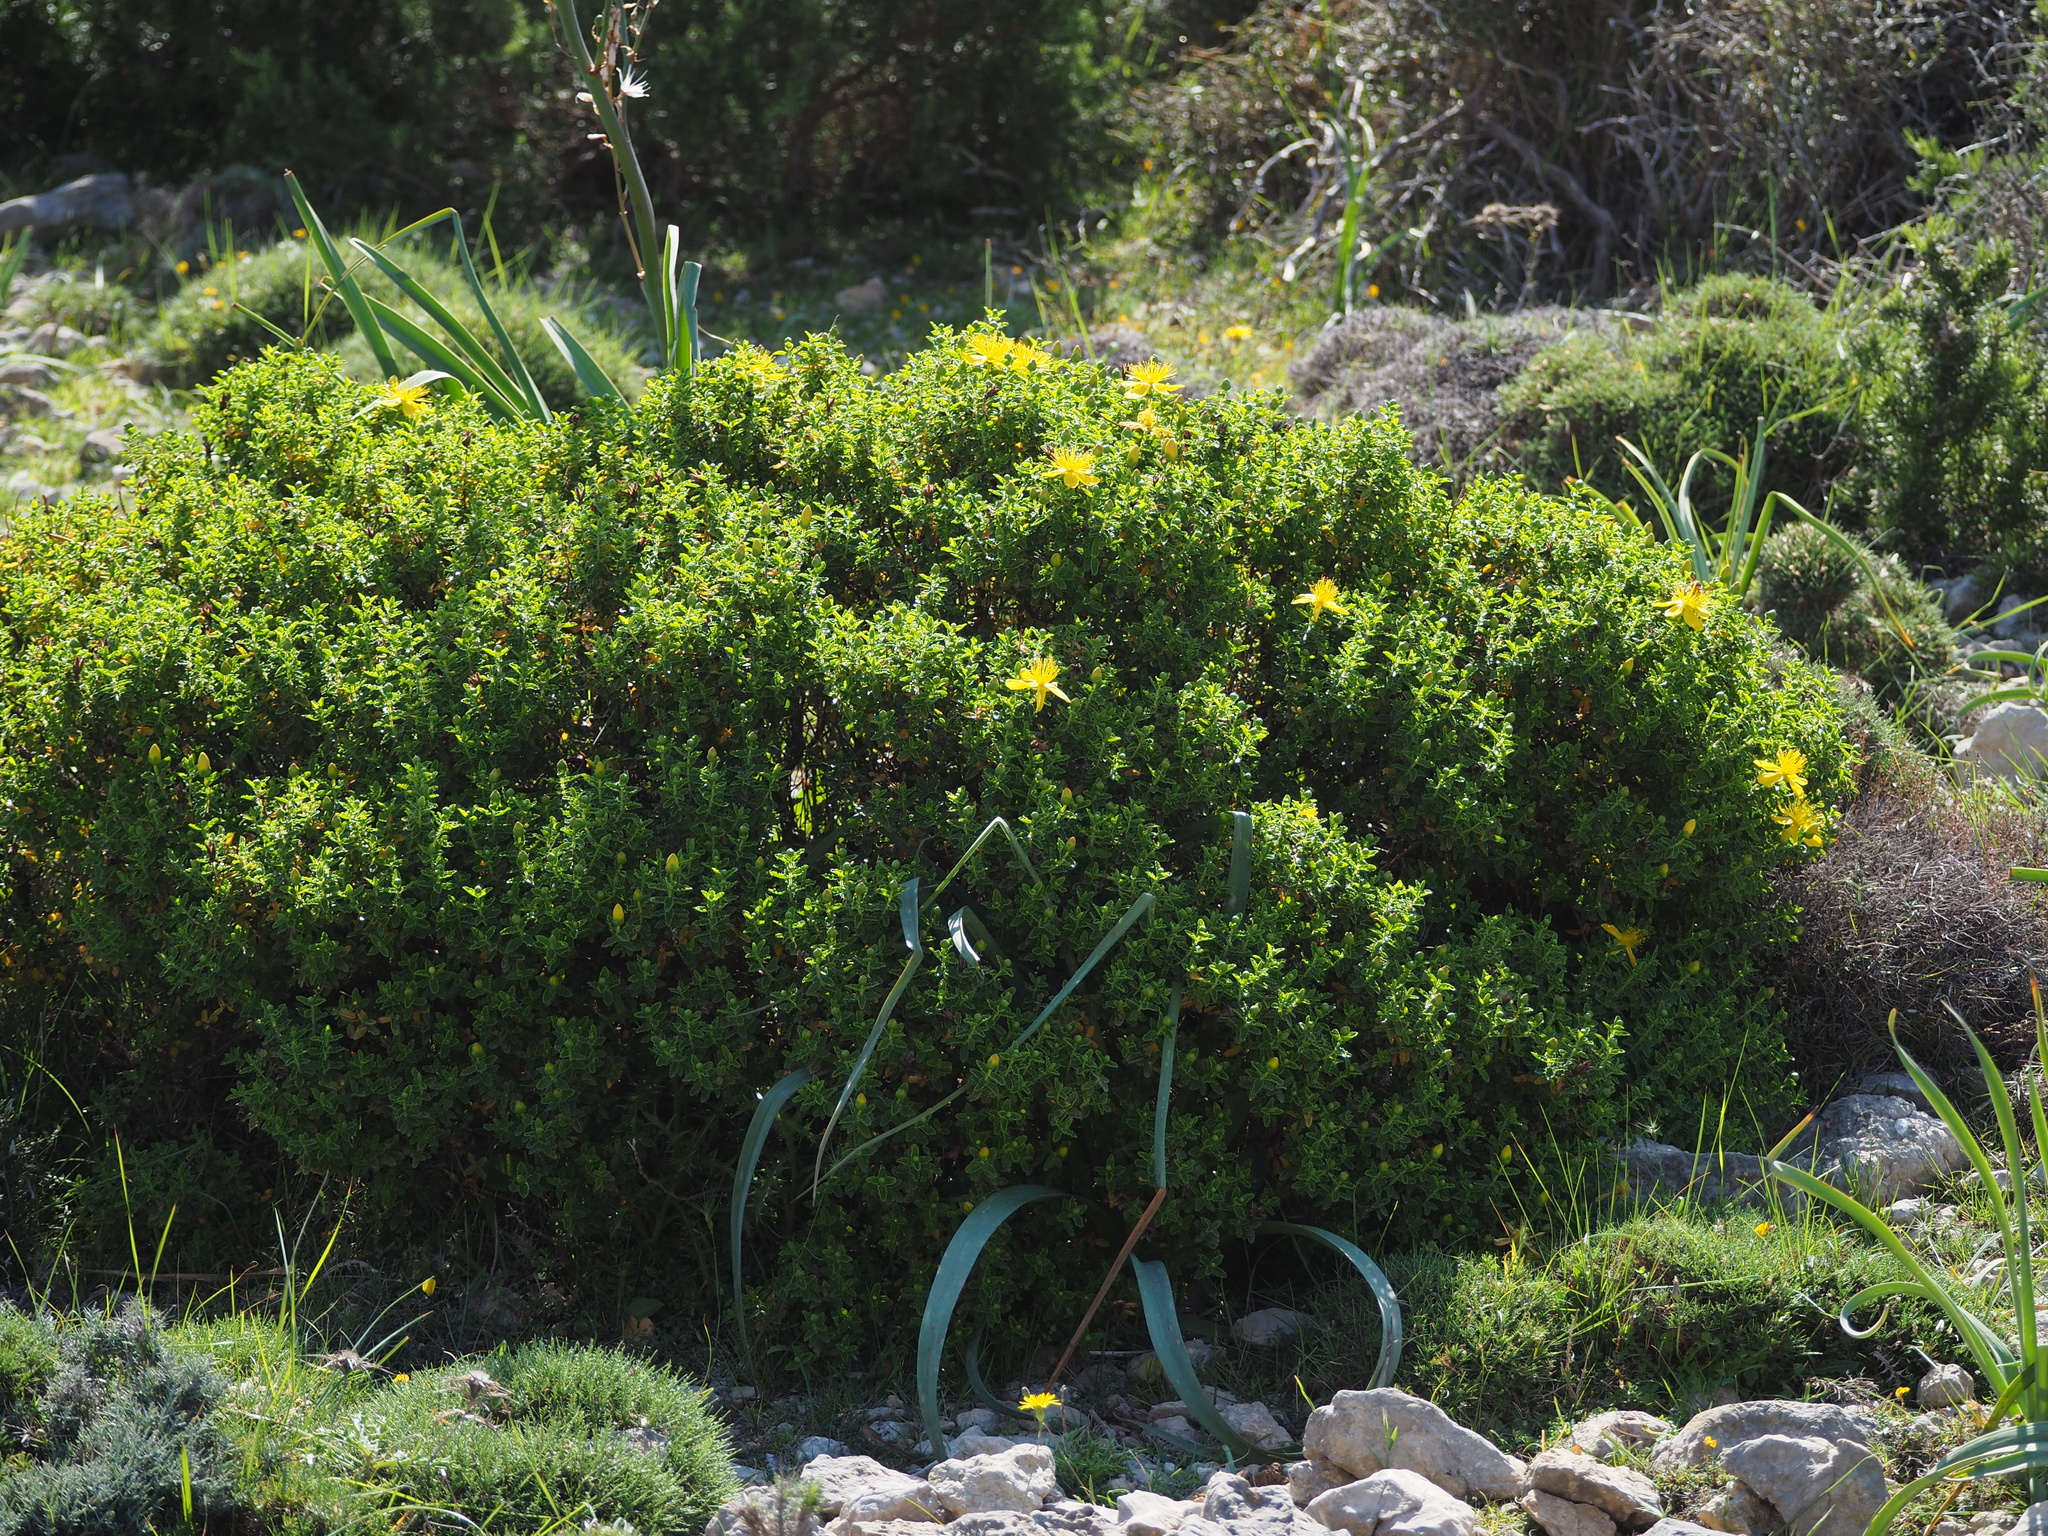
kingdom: Plantae
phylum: Tracheophyta
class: Magnoliopsida
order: Malpighiales
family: Hypericaceae
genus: Hypericum
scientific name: Hypericum balearicum
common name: Majorca st john's wort
